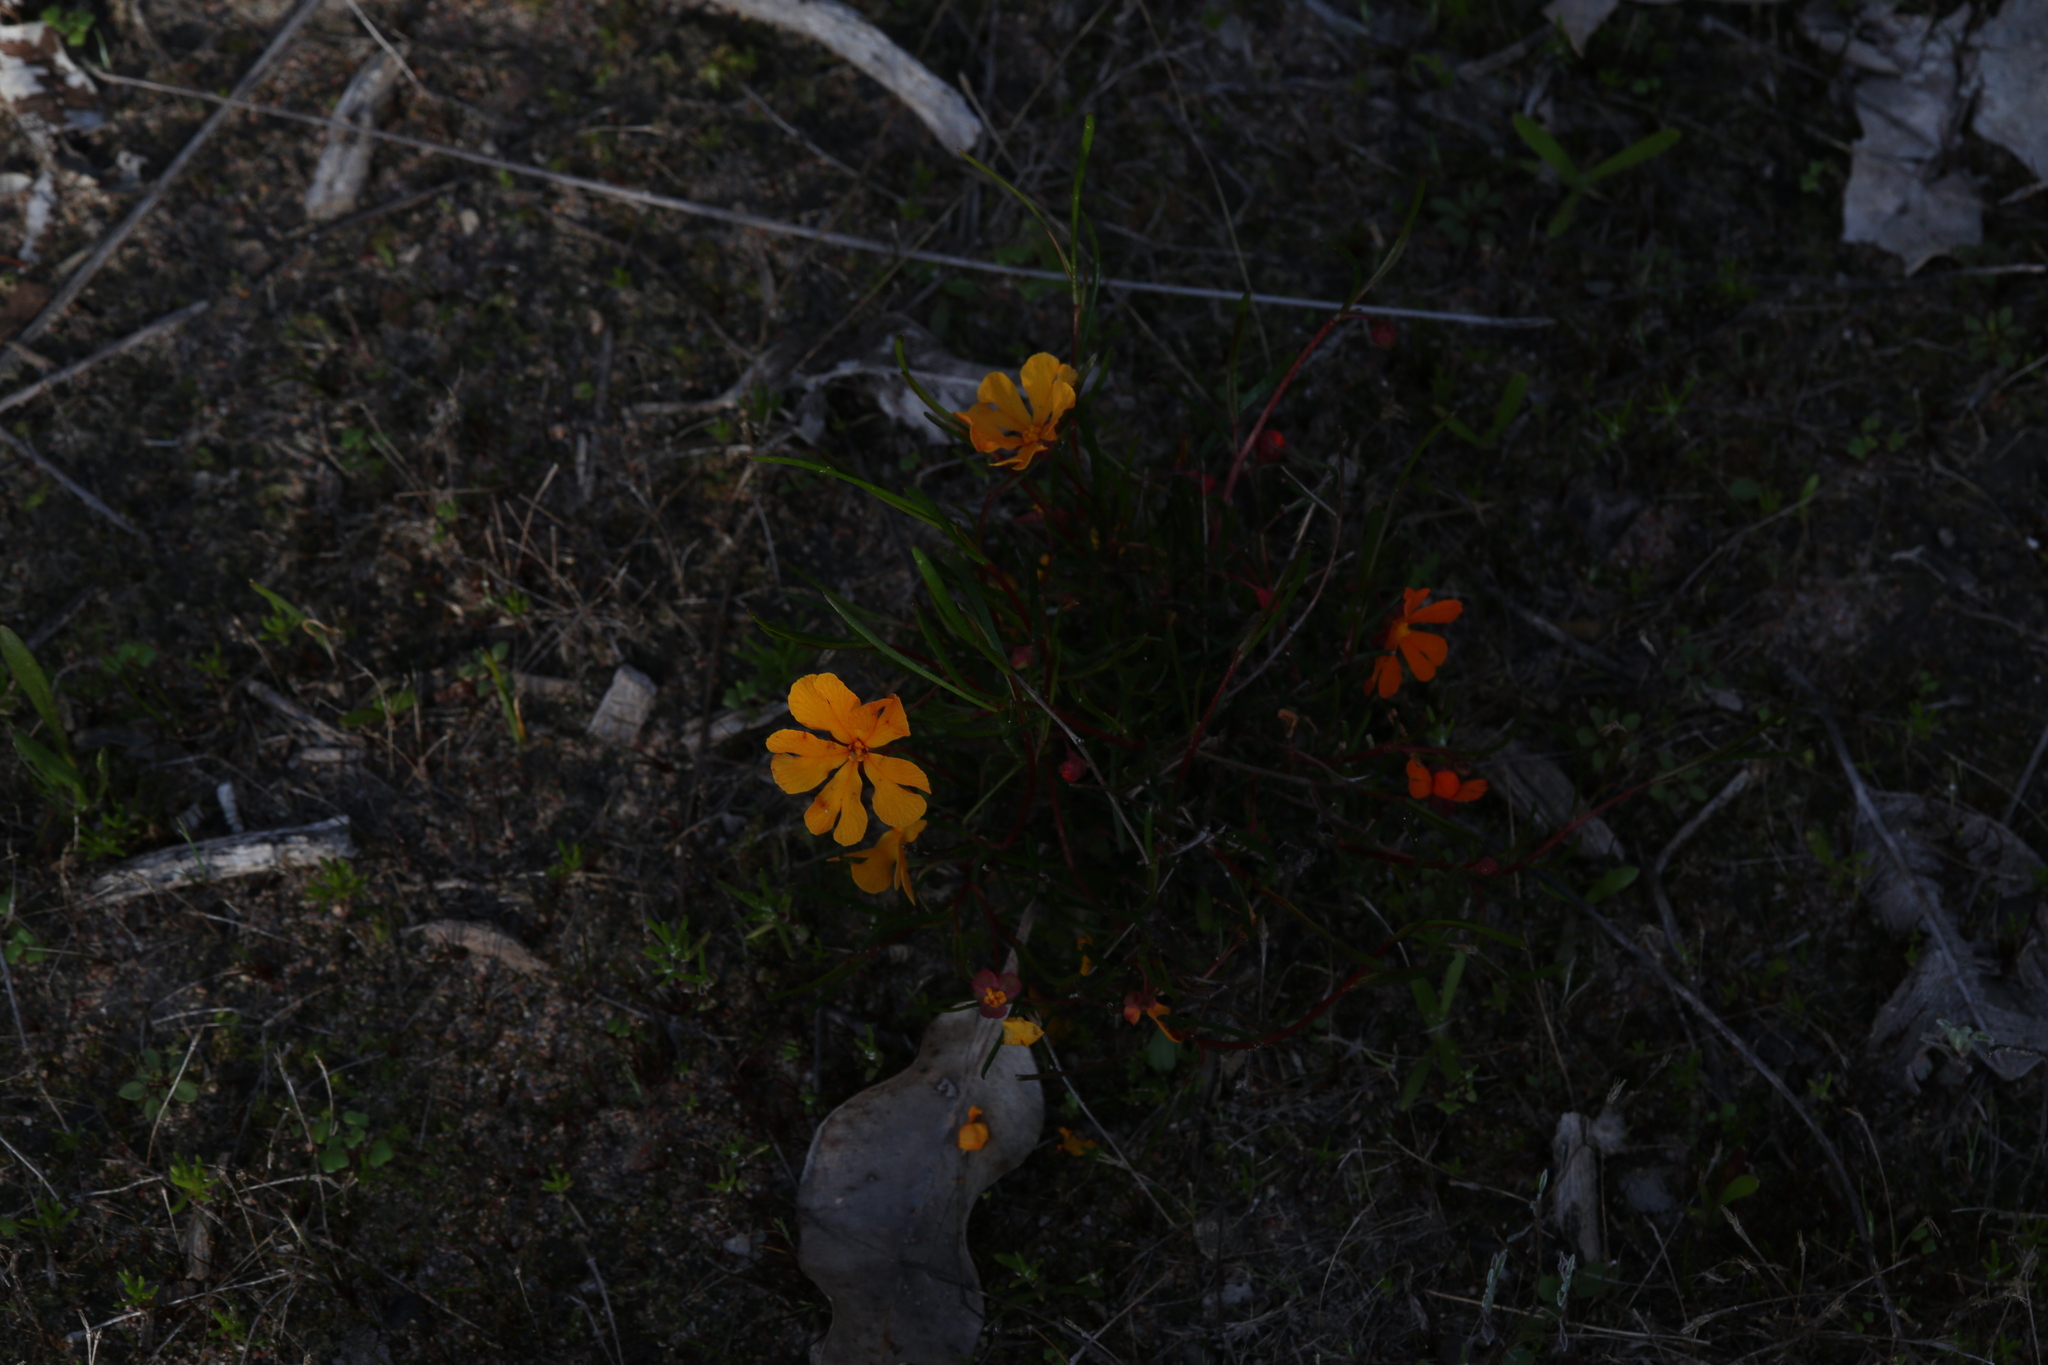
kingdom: Plantae
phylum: Tracheophyta
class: Magnoliopsida
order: Dilleniales
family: Dilleniaceae
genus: Hibbertia
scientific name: Hibbertia stellaris
